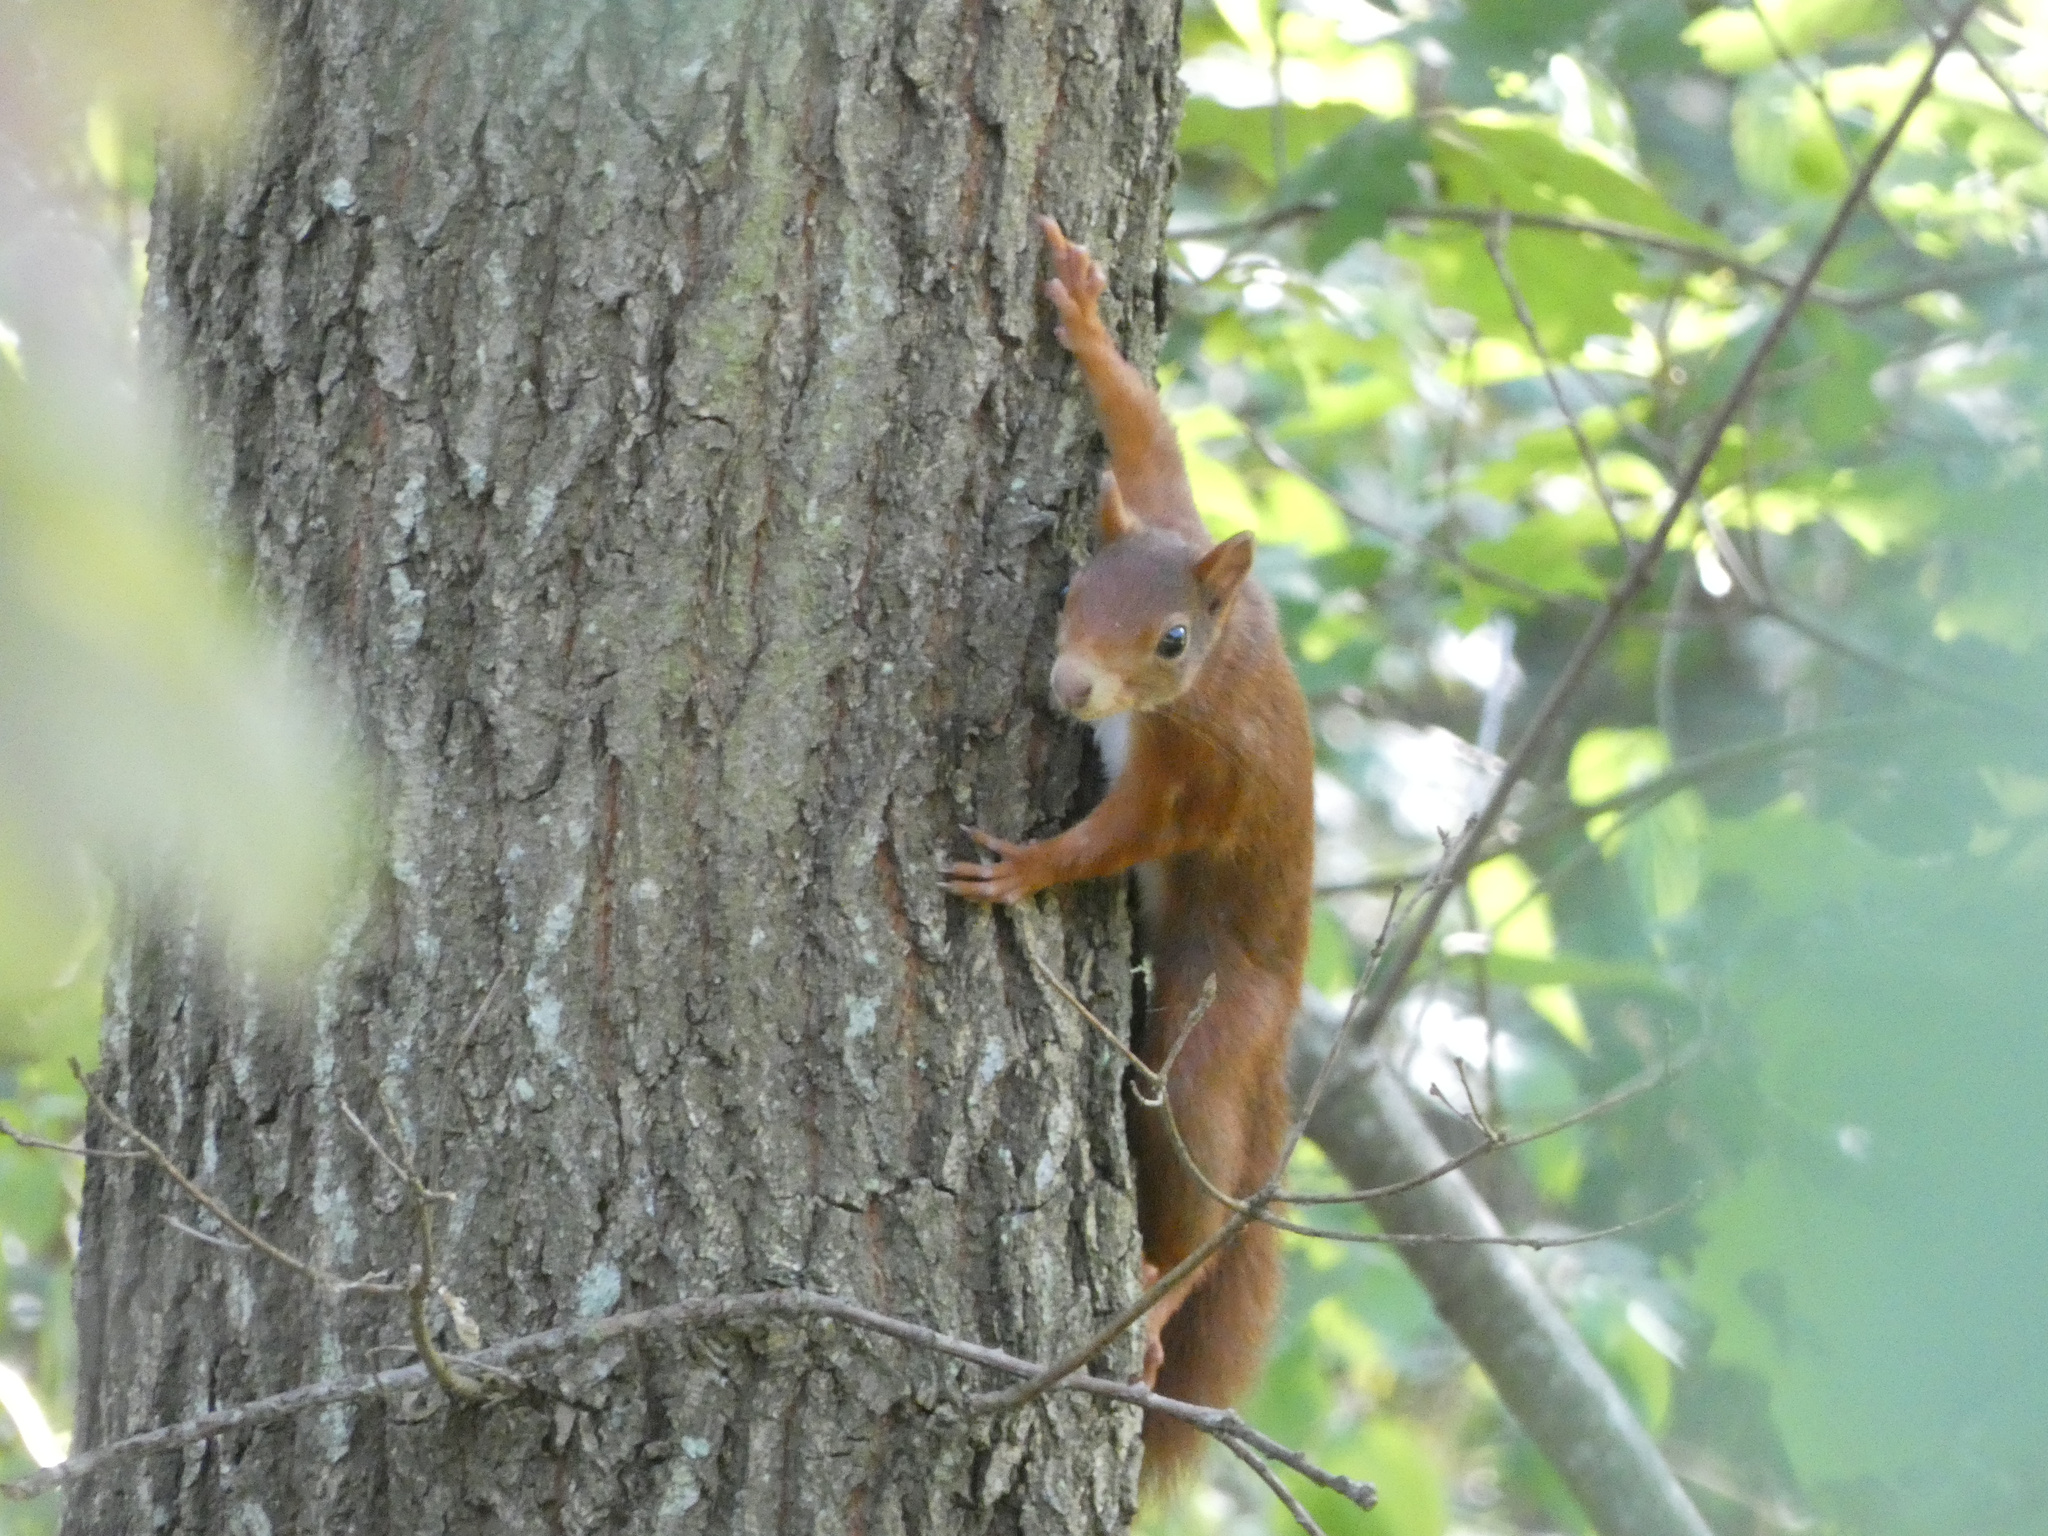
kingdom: Animalia
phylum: Chordata
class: Mammalia
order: Rodentia
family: Sciuridae
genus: Sciurus
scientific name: Sciurus vulgaris
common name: Eurasian red squirrel
